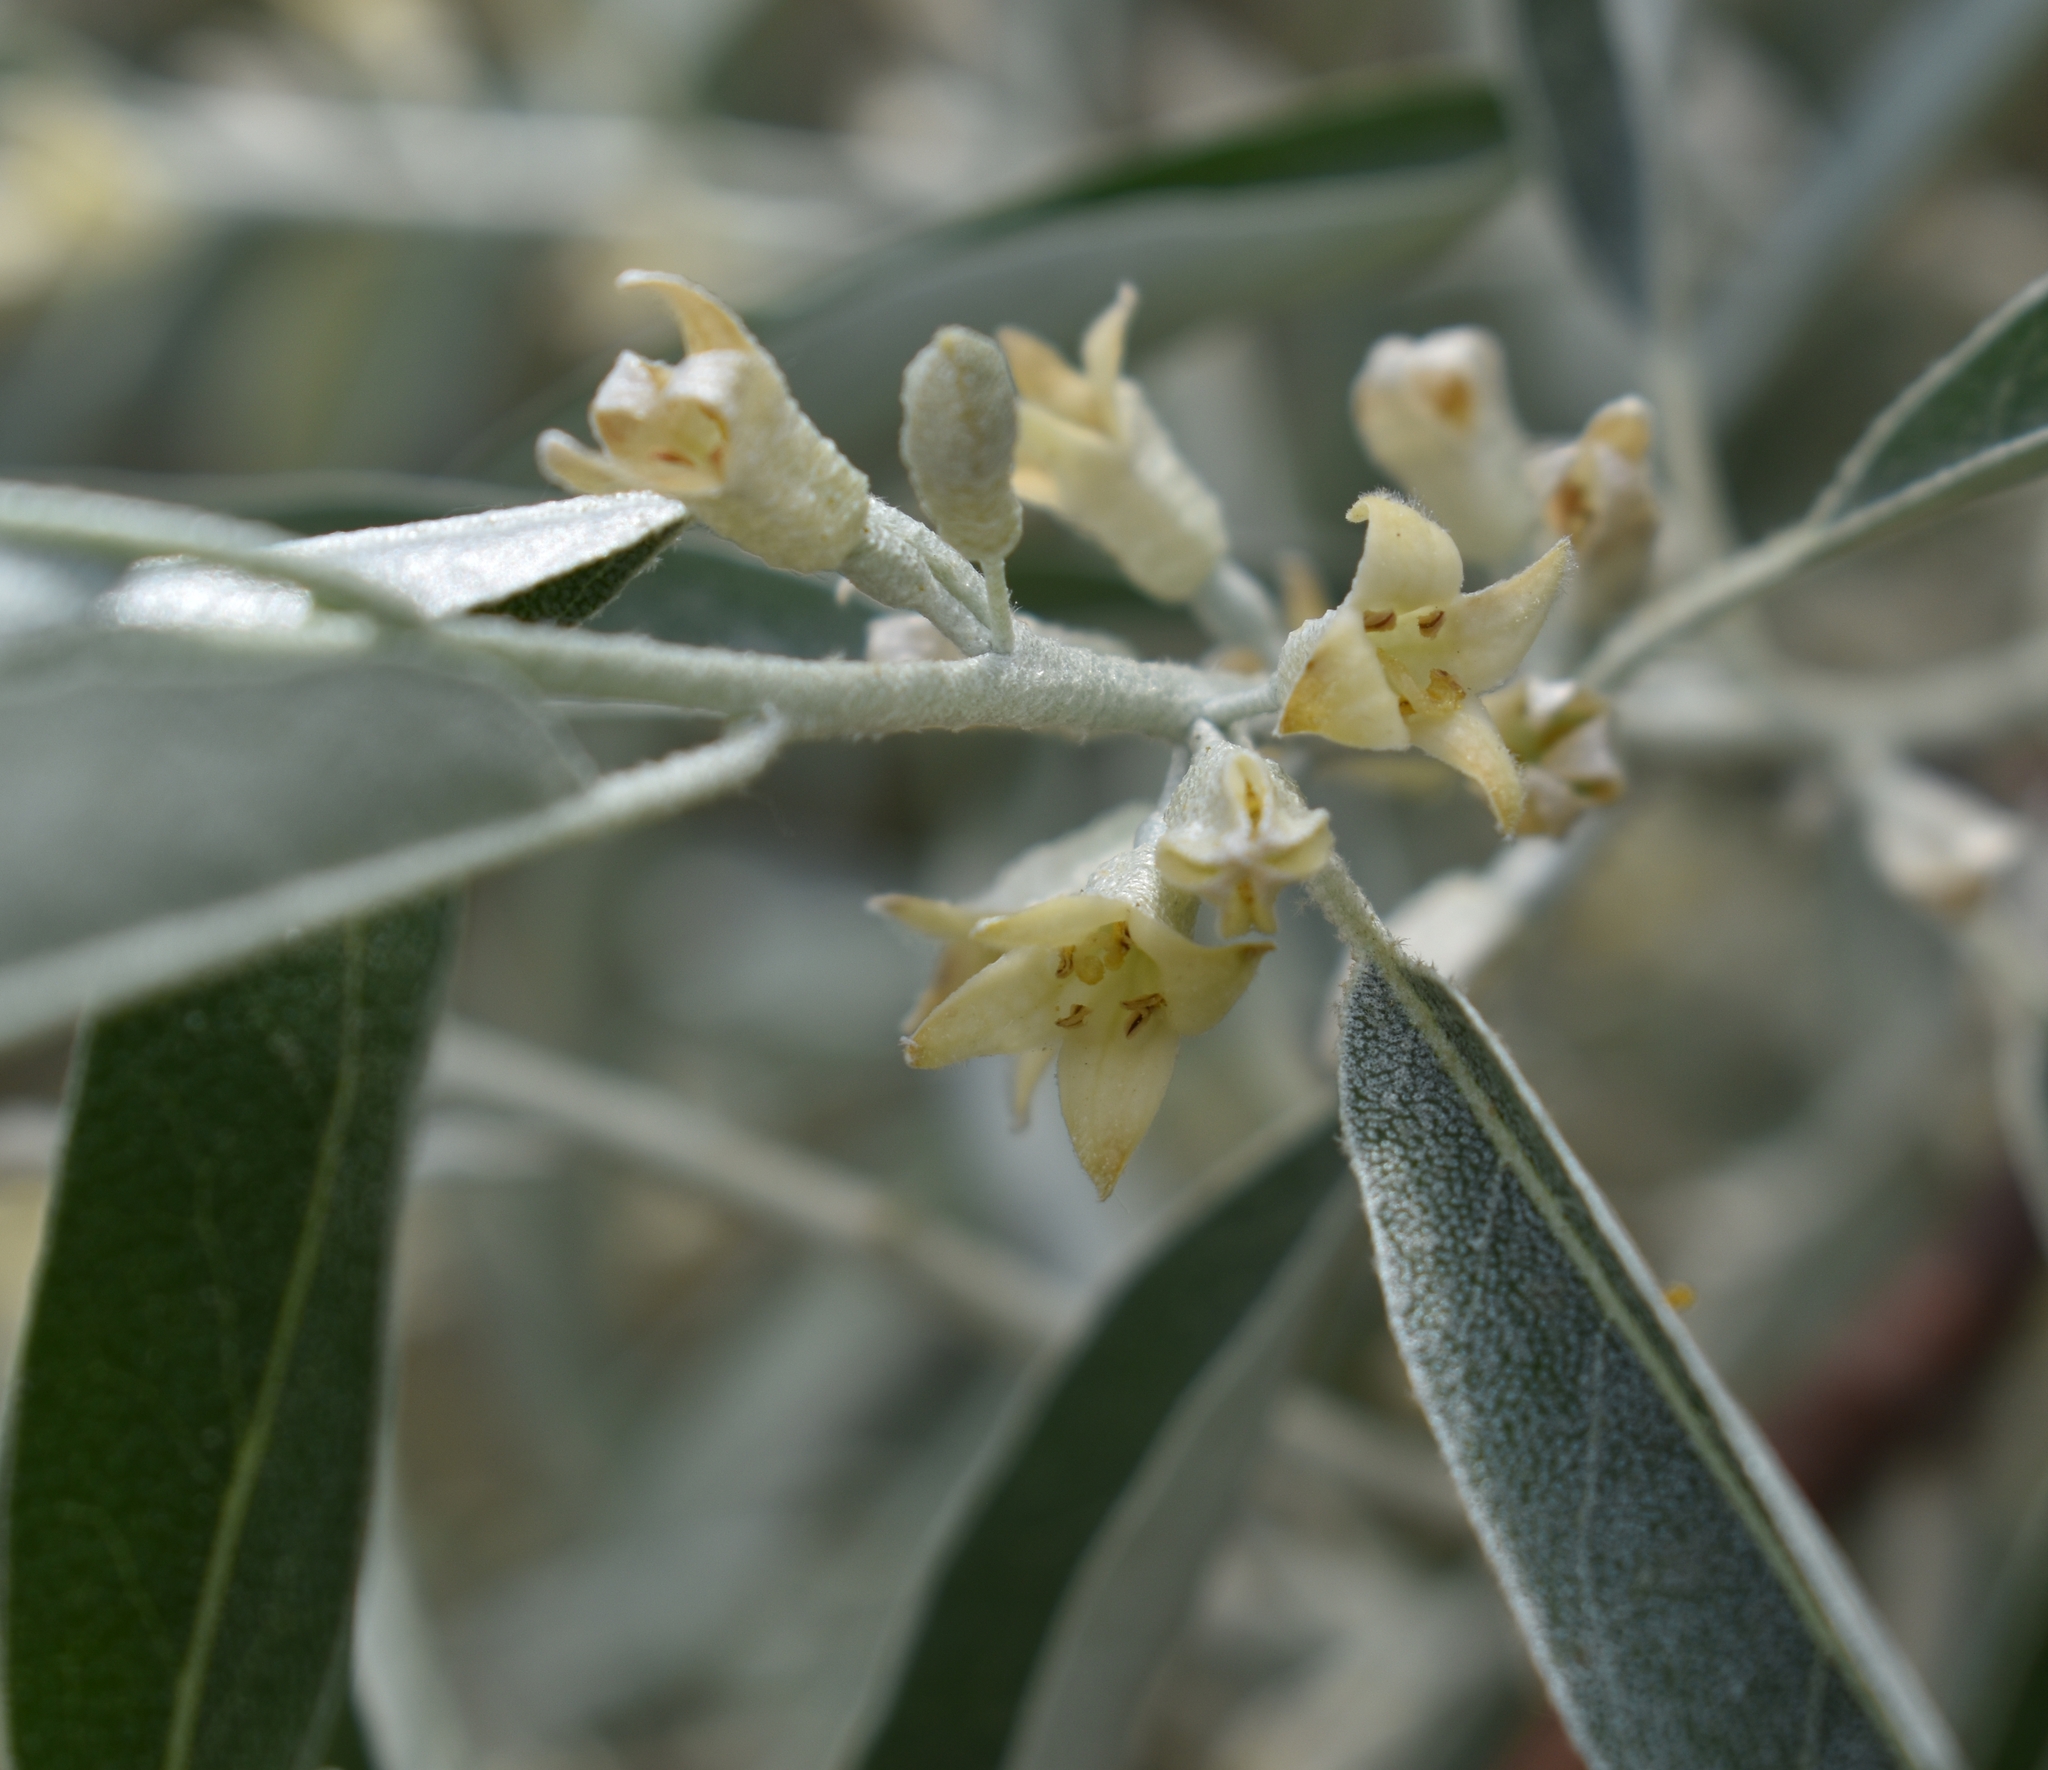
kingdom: Plantae
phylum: Tracheophyta
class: Magnoliopsida
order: Rosales
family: Elaeagnaceae
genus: Elaeagnus
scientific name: Elaeagnus angustifolia
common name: Russian olive
